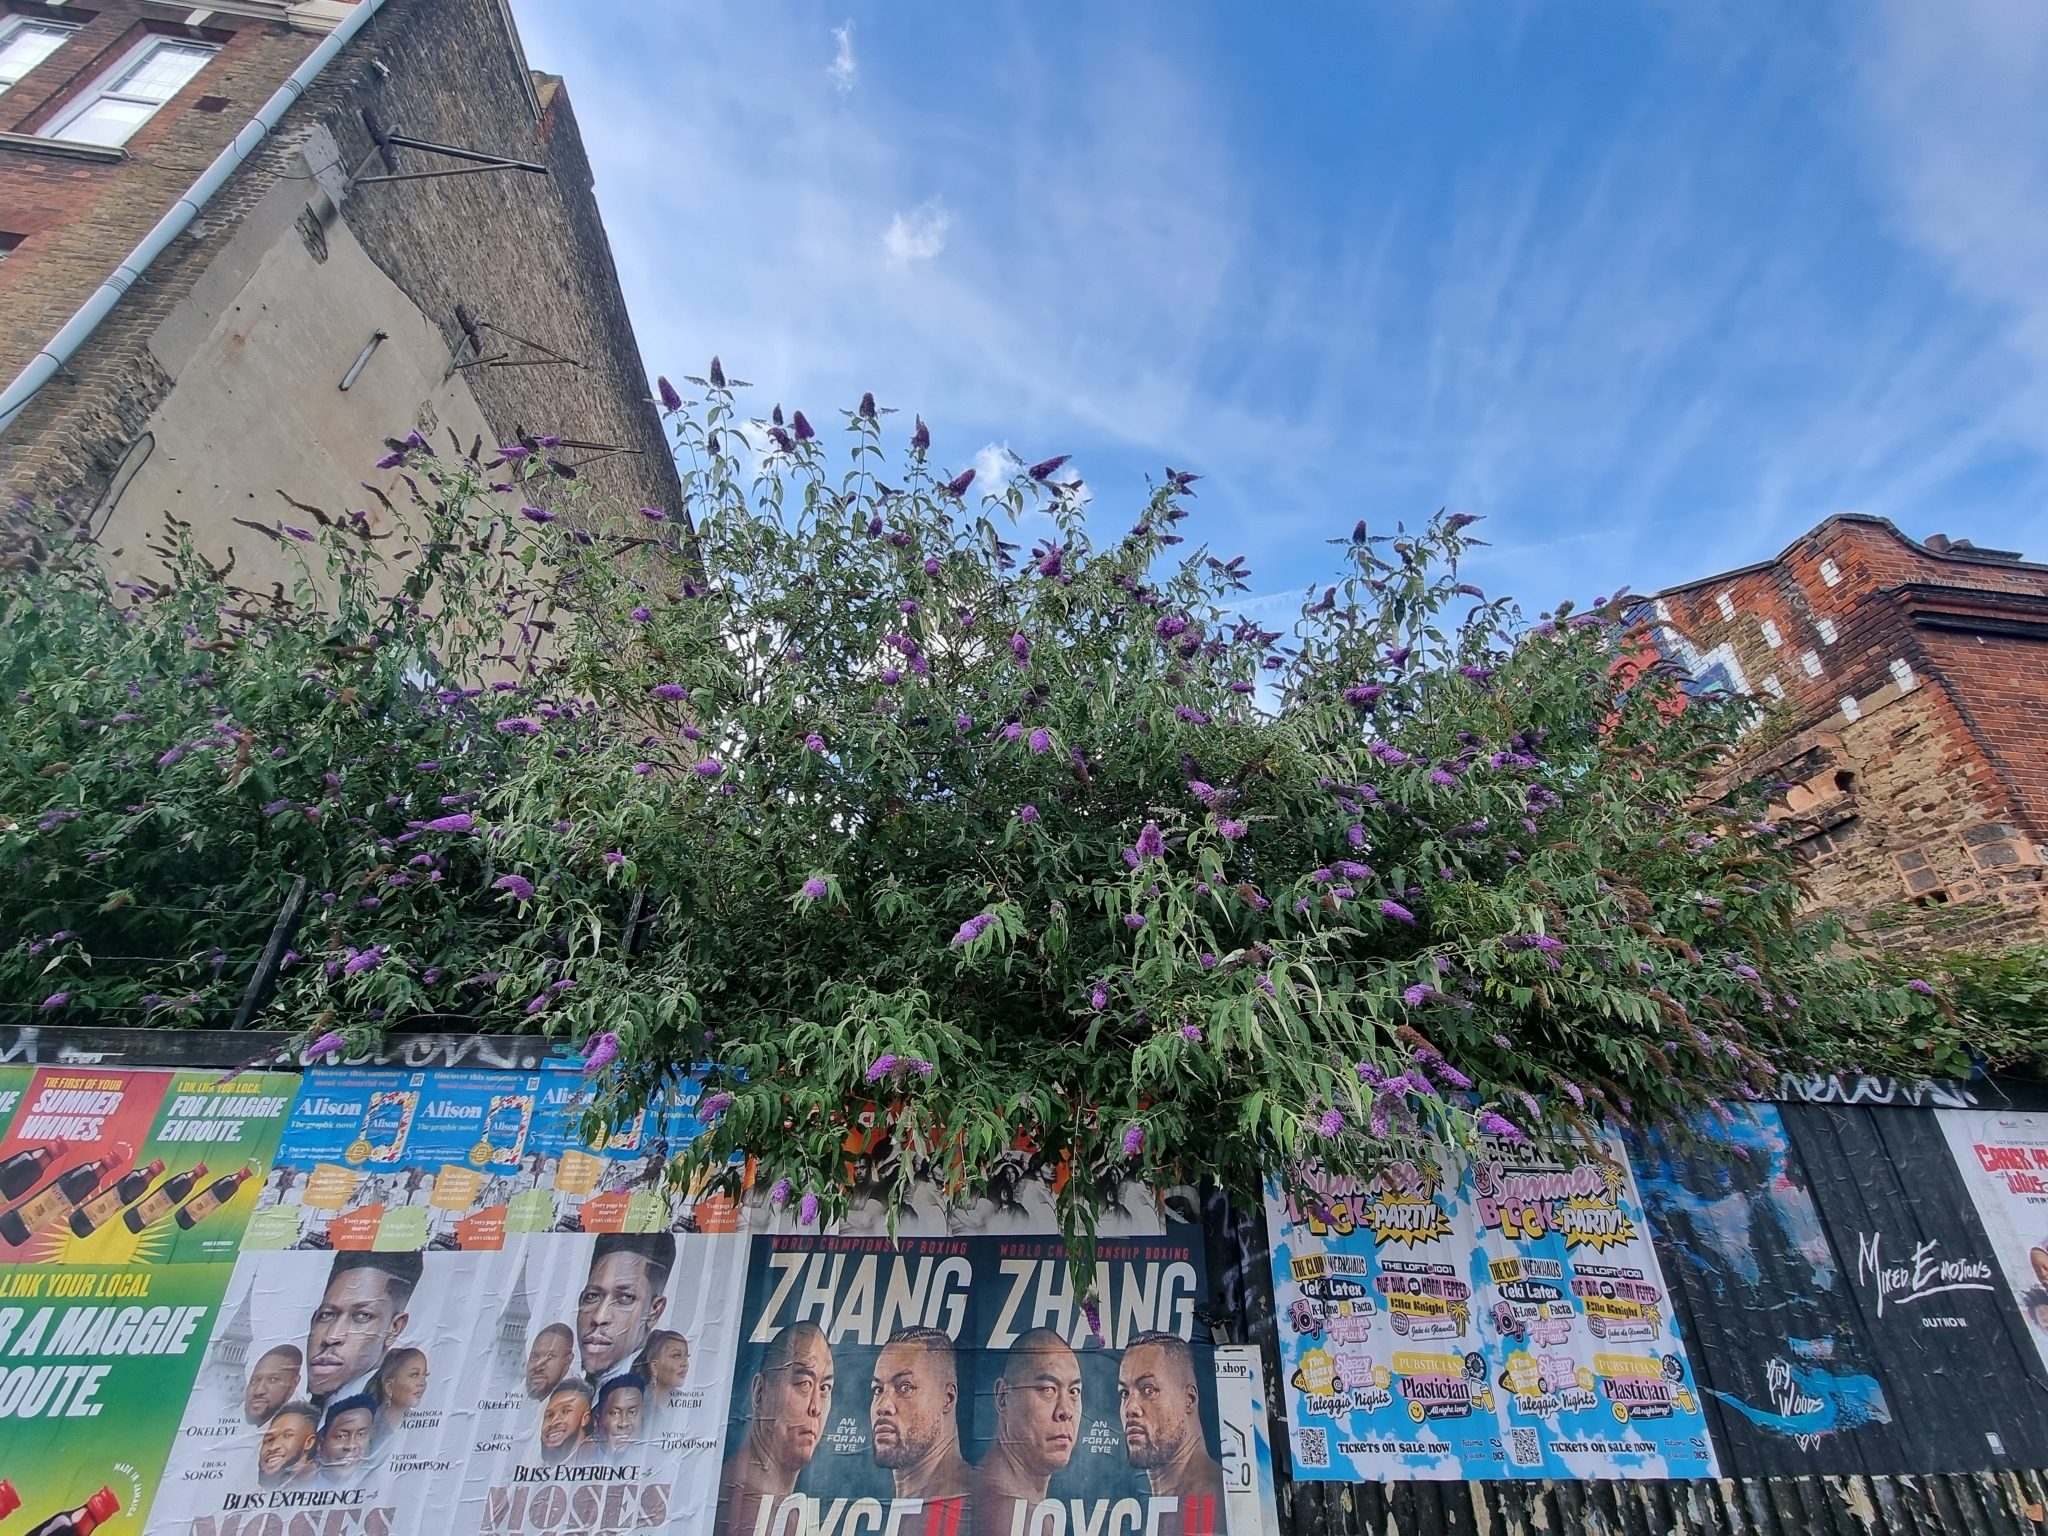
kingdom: Plantae
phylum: Tracheophyta
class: Magnoliopsida
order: Lamiales
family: Scrophulariaceae
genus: Buddleja
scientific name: Buddleja davidii
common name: Butterfly-bush
